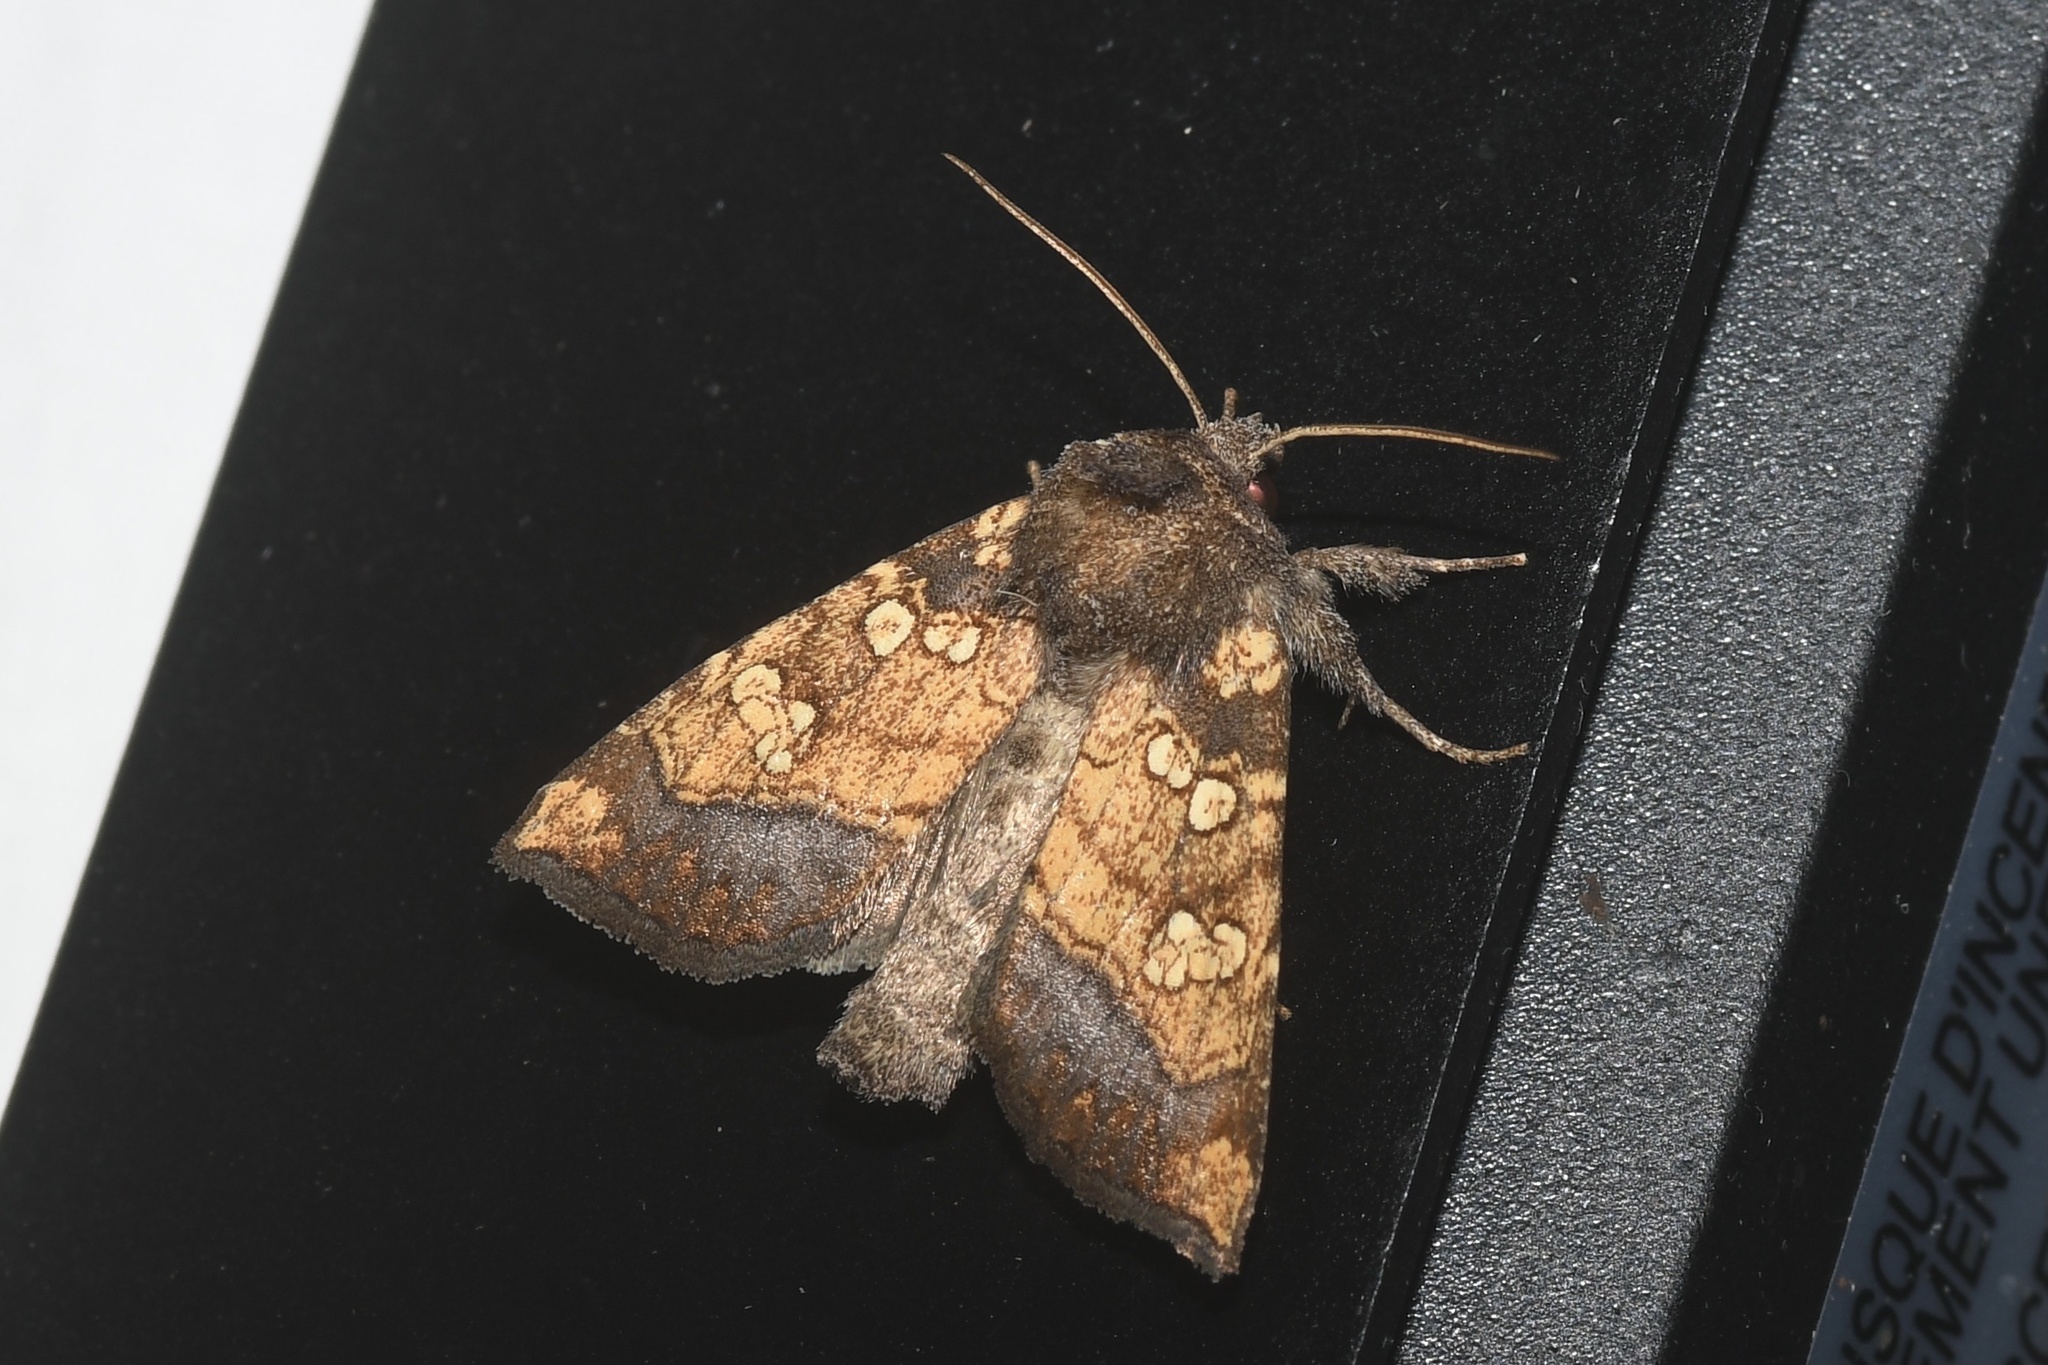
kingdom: Animalia
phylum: Arthropoda
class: Insecta
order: Lepidoptera
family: Noctuidae
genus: Papaipema
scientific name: Papaipema cataphracta
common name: Burdock borer
